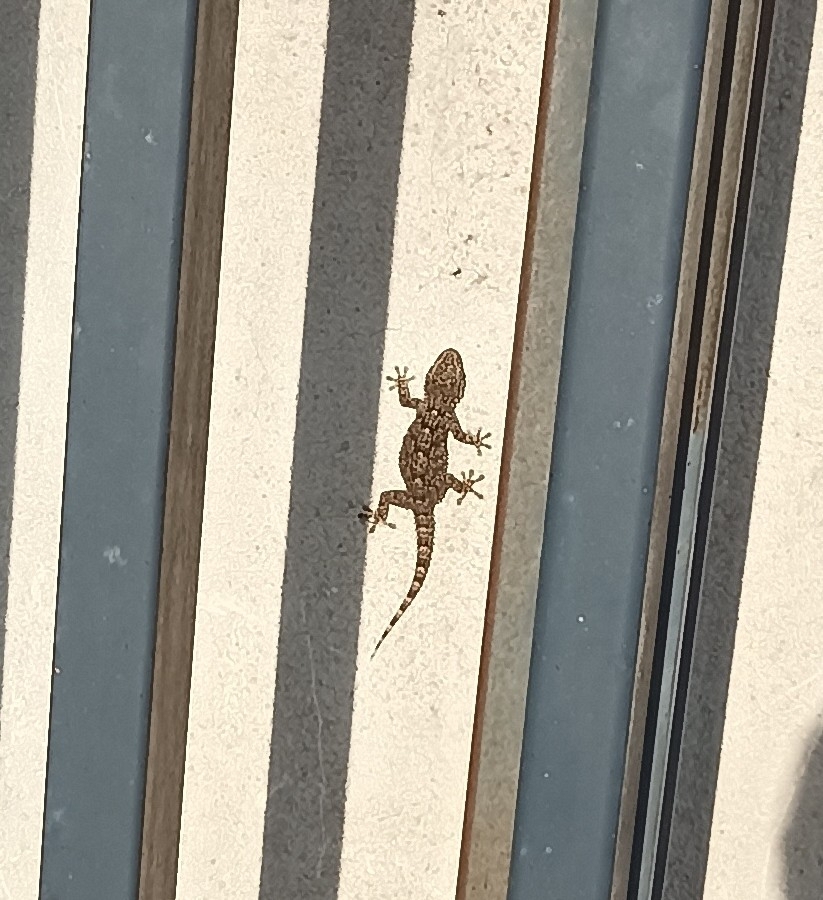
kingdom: Animalia
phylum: Chordata
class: Squamata
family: Phyllodactylidae
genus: Tarentola
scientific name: Tarentola mauritanica
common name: Moorish gecko
